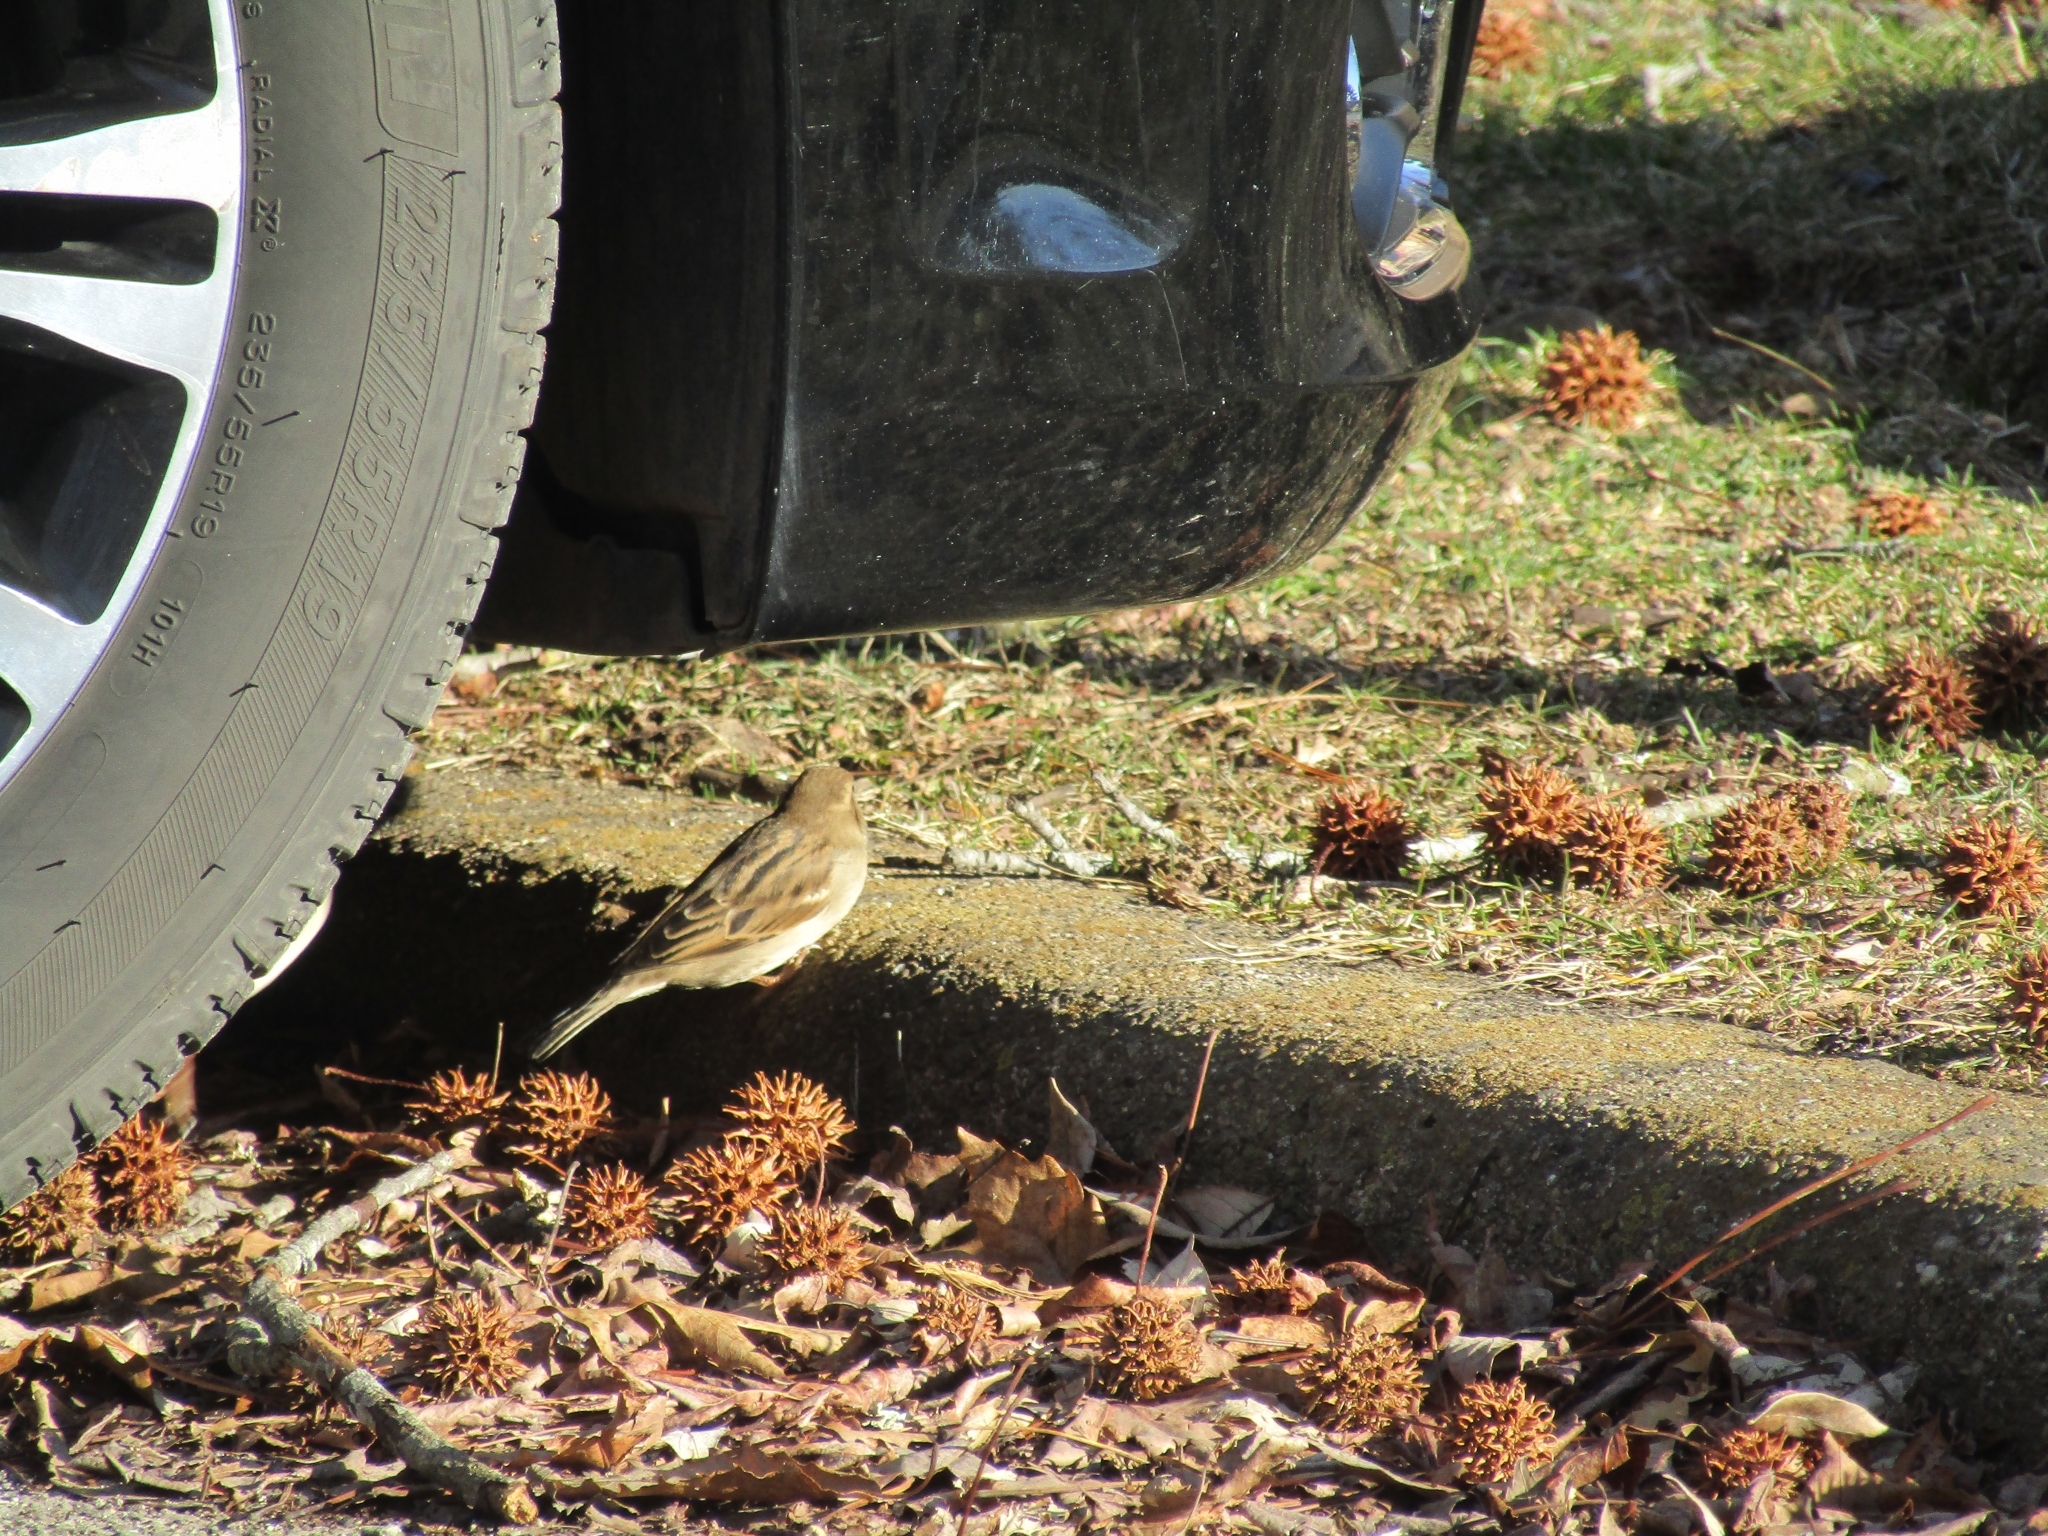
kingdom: Animalia
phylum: Chordata
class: Aves
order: Passeriformes
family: Passeridae
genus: Passer
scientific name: Passer domesticus
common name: House sparrow
